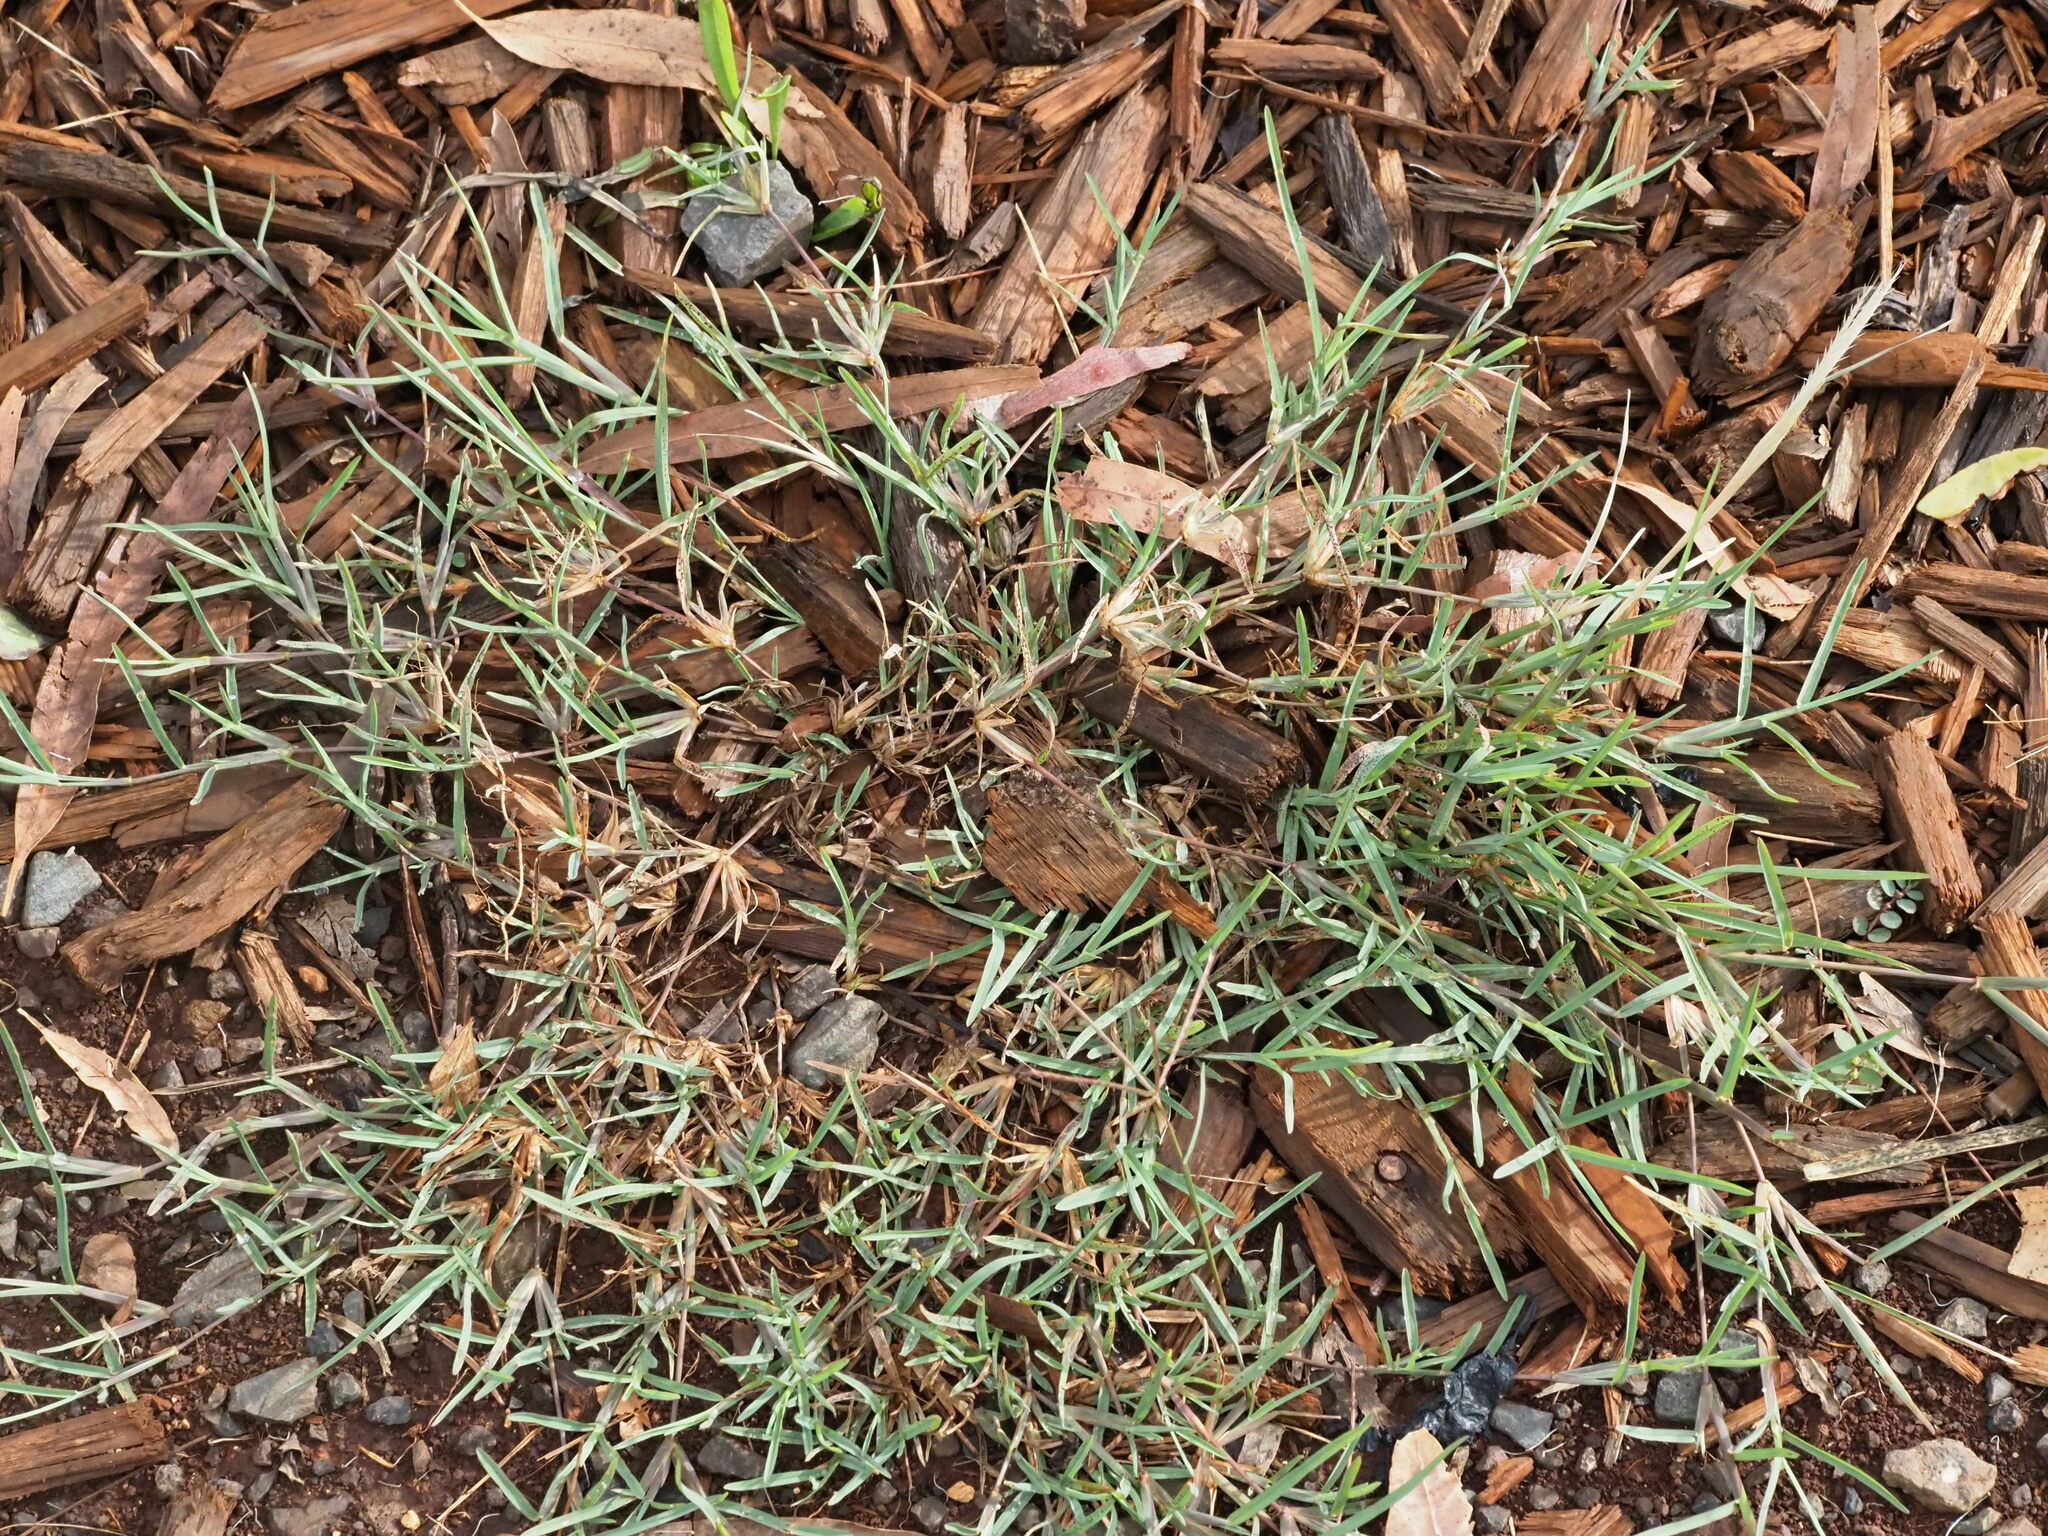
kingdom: Plantae
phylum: Tracheophyta
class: Liliopsida
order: Poales
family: Poaceae
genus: Chloris
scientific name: Chloris divaricata
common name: Spreading windmill grass
